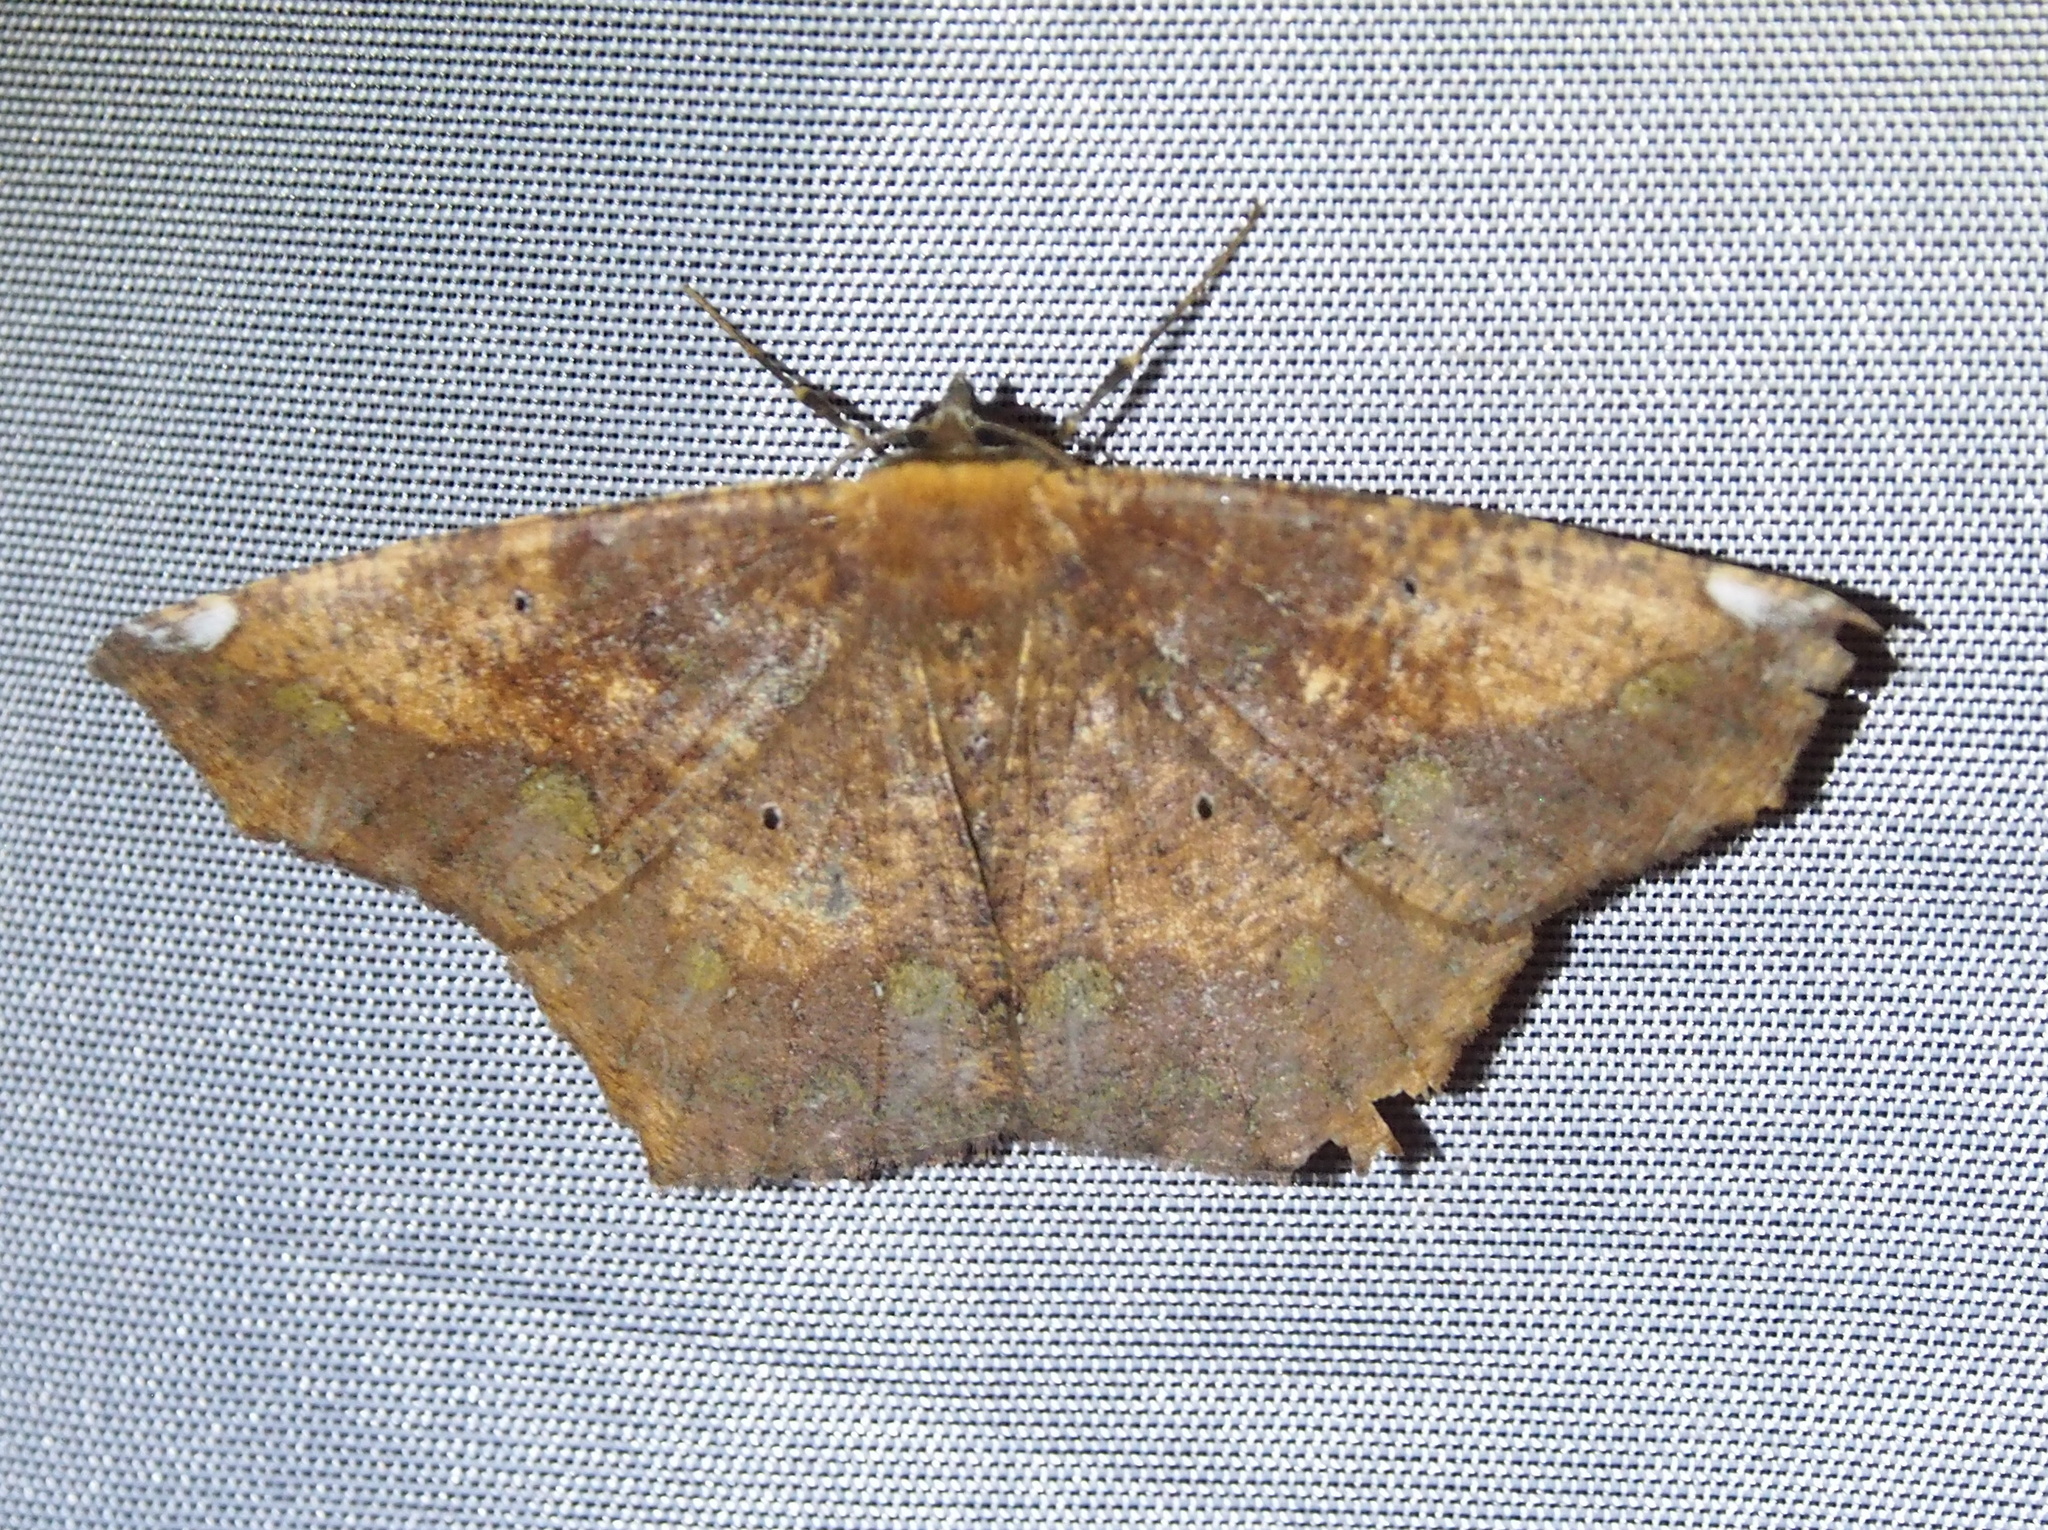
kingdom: Animalia
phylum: Arthropoda
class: Insecta
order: Lepidoptera
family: Geometridae
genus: Paragonia
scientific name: Paragonia cruraria
